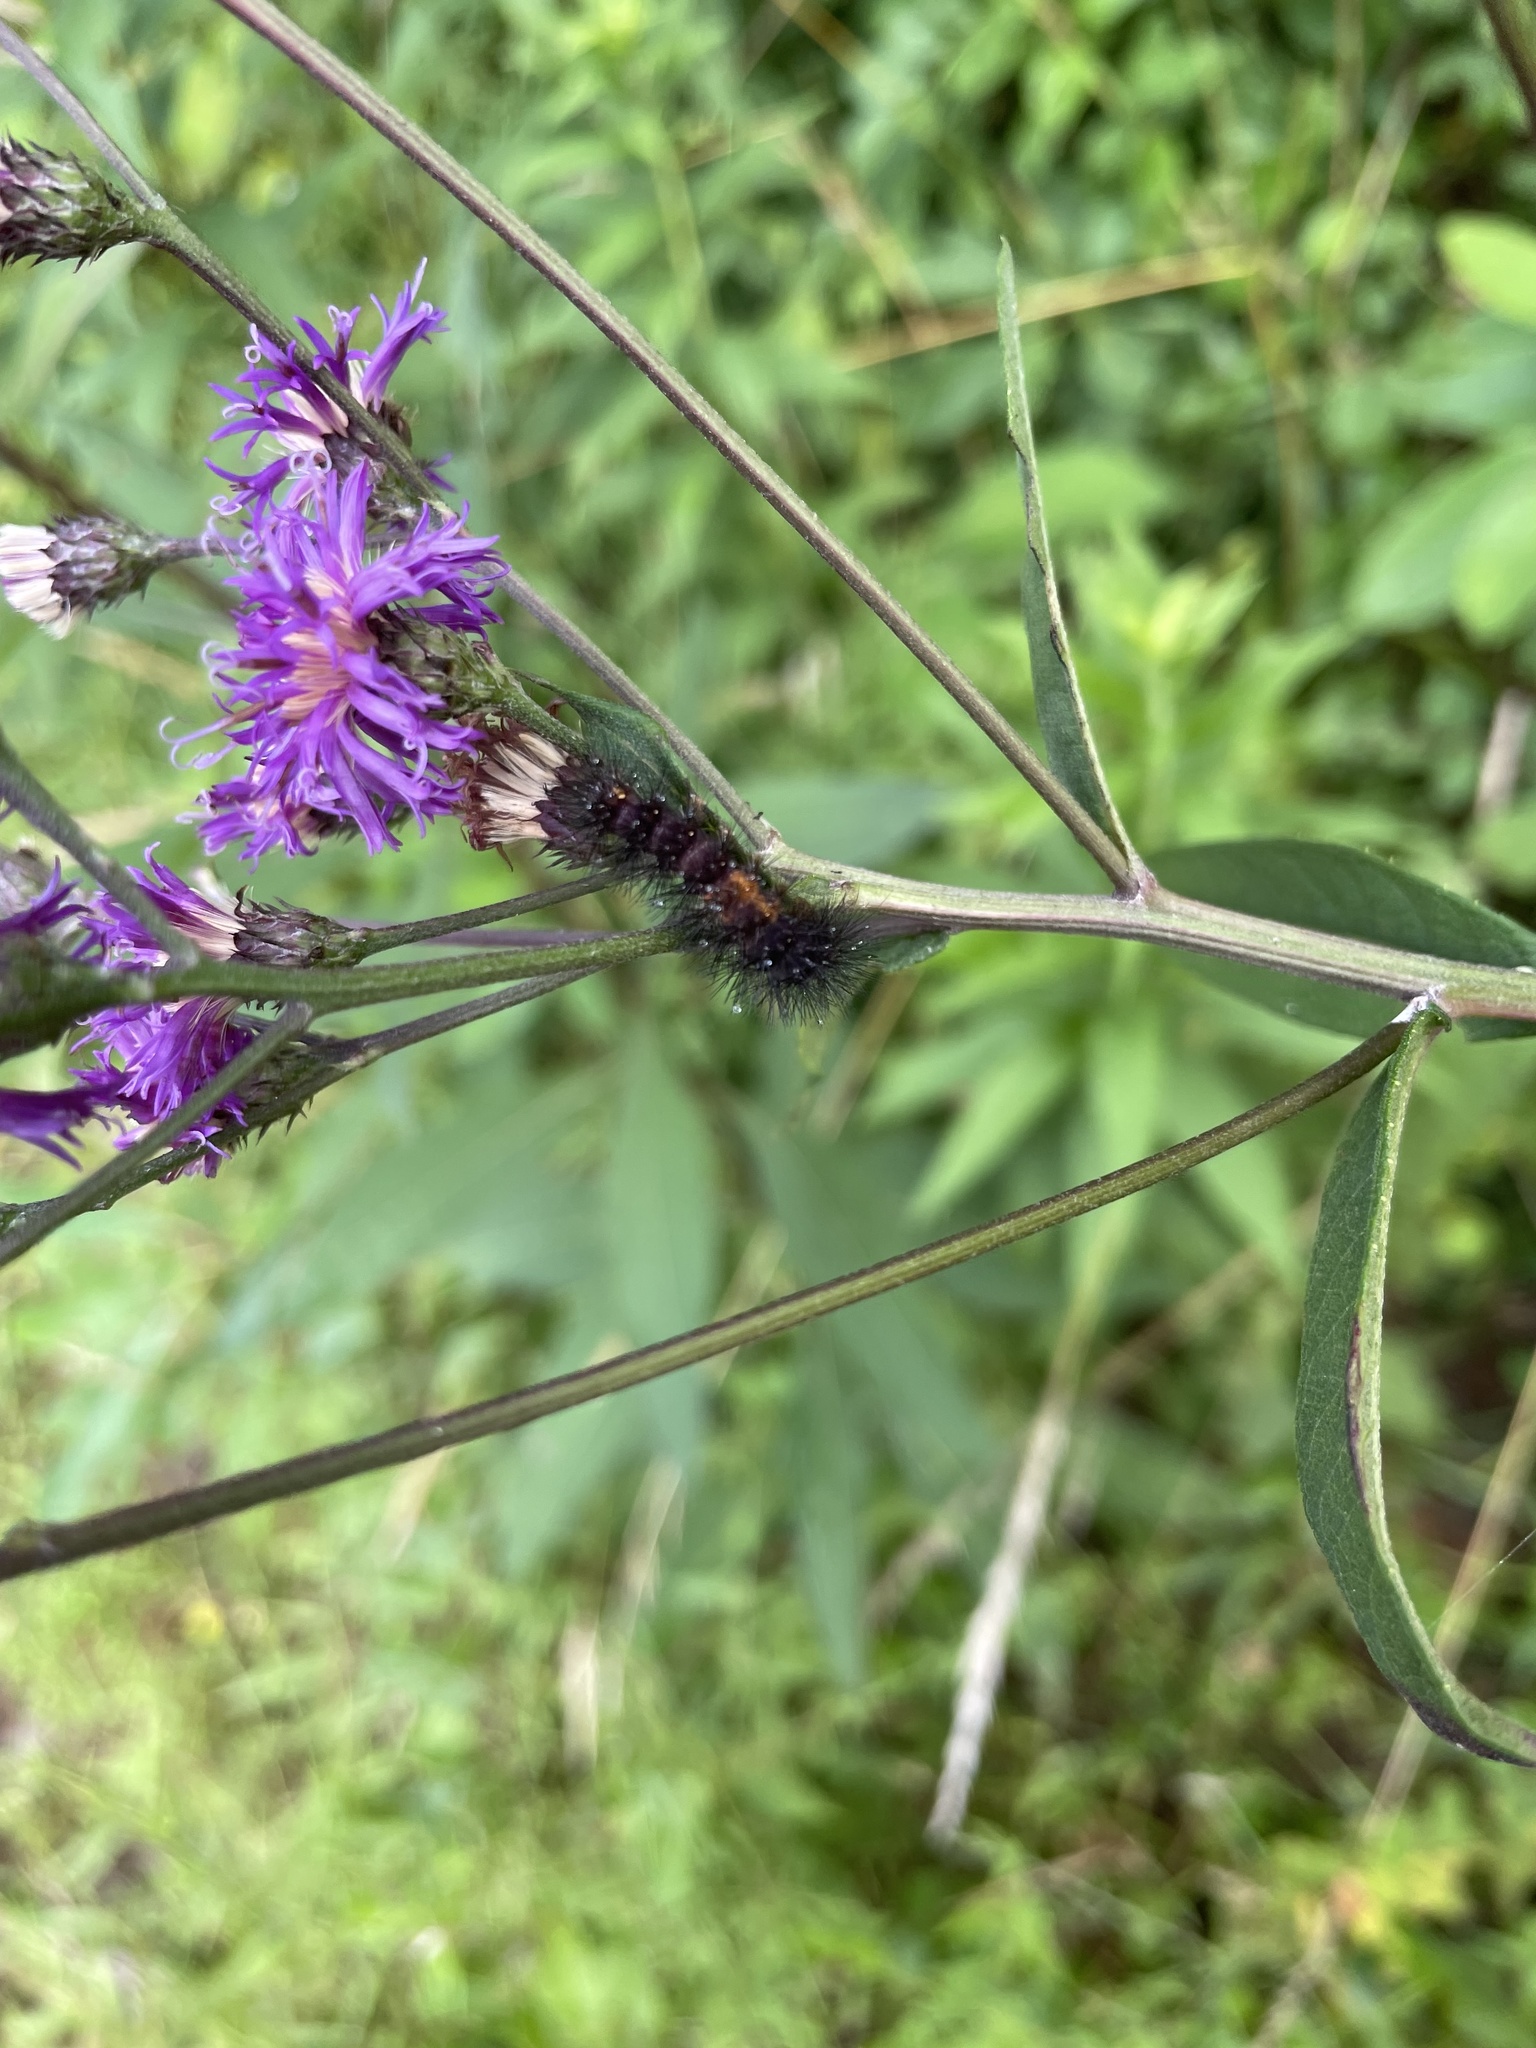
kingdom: Animalia
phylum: Arthropoda
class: Insecta
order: Lepidoptera
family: Erebidae
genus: Hypercompe
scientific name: Hypercompe scribonia
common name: Giant leopard moth
